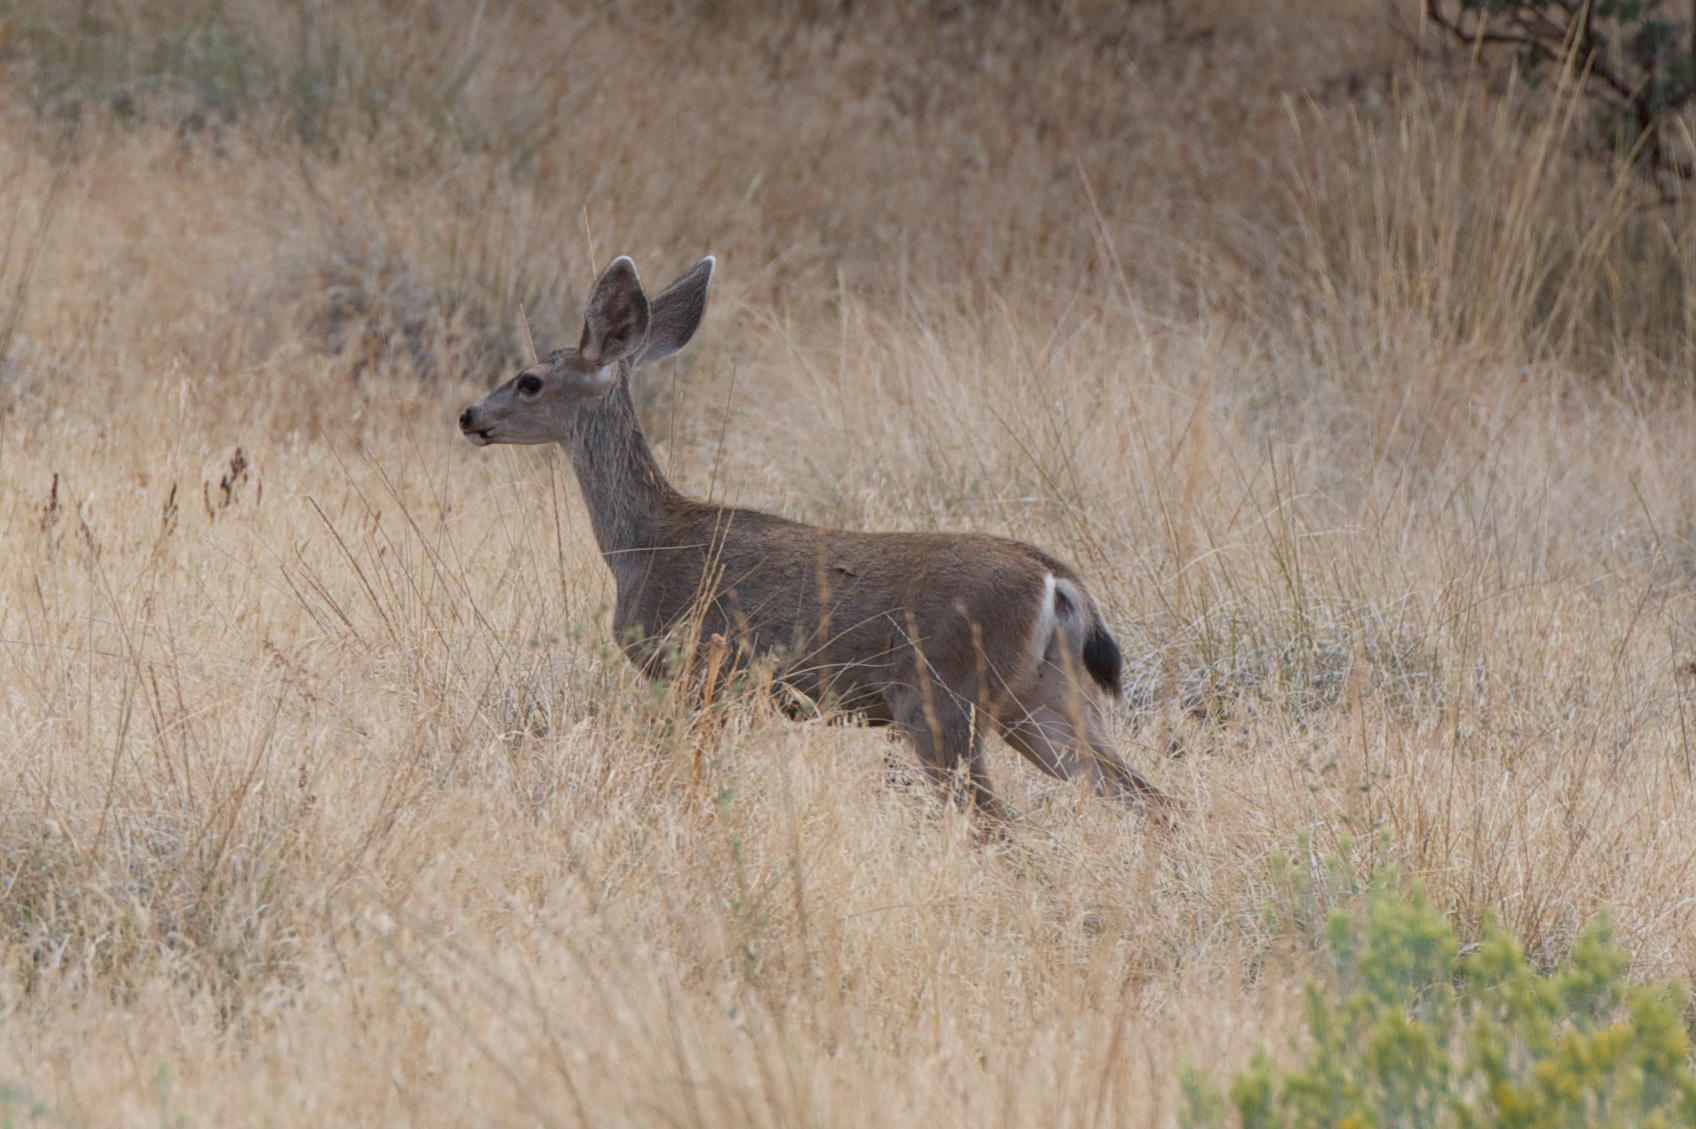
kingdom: Animalia
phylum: Chordata
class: Mammalia
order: Artiodactyla
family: Cervidae
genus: Odocoileus
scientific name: Odocoileus hemionus
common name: Mule deer
